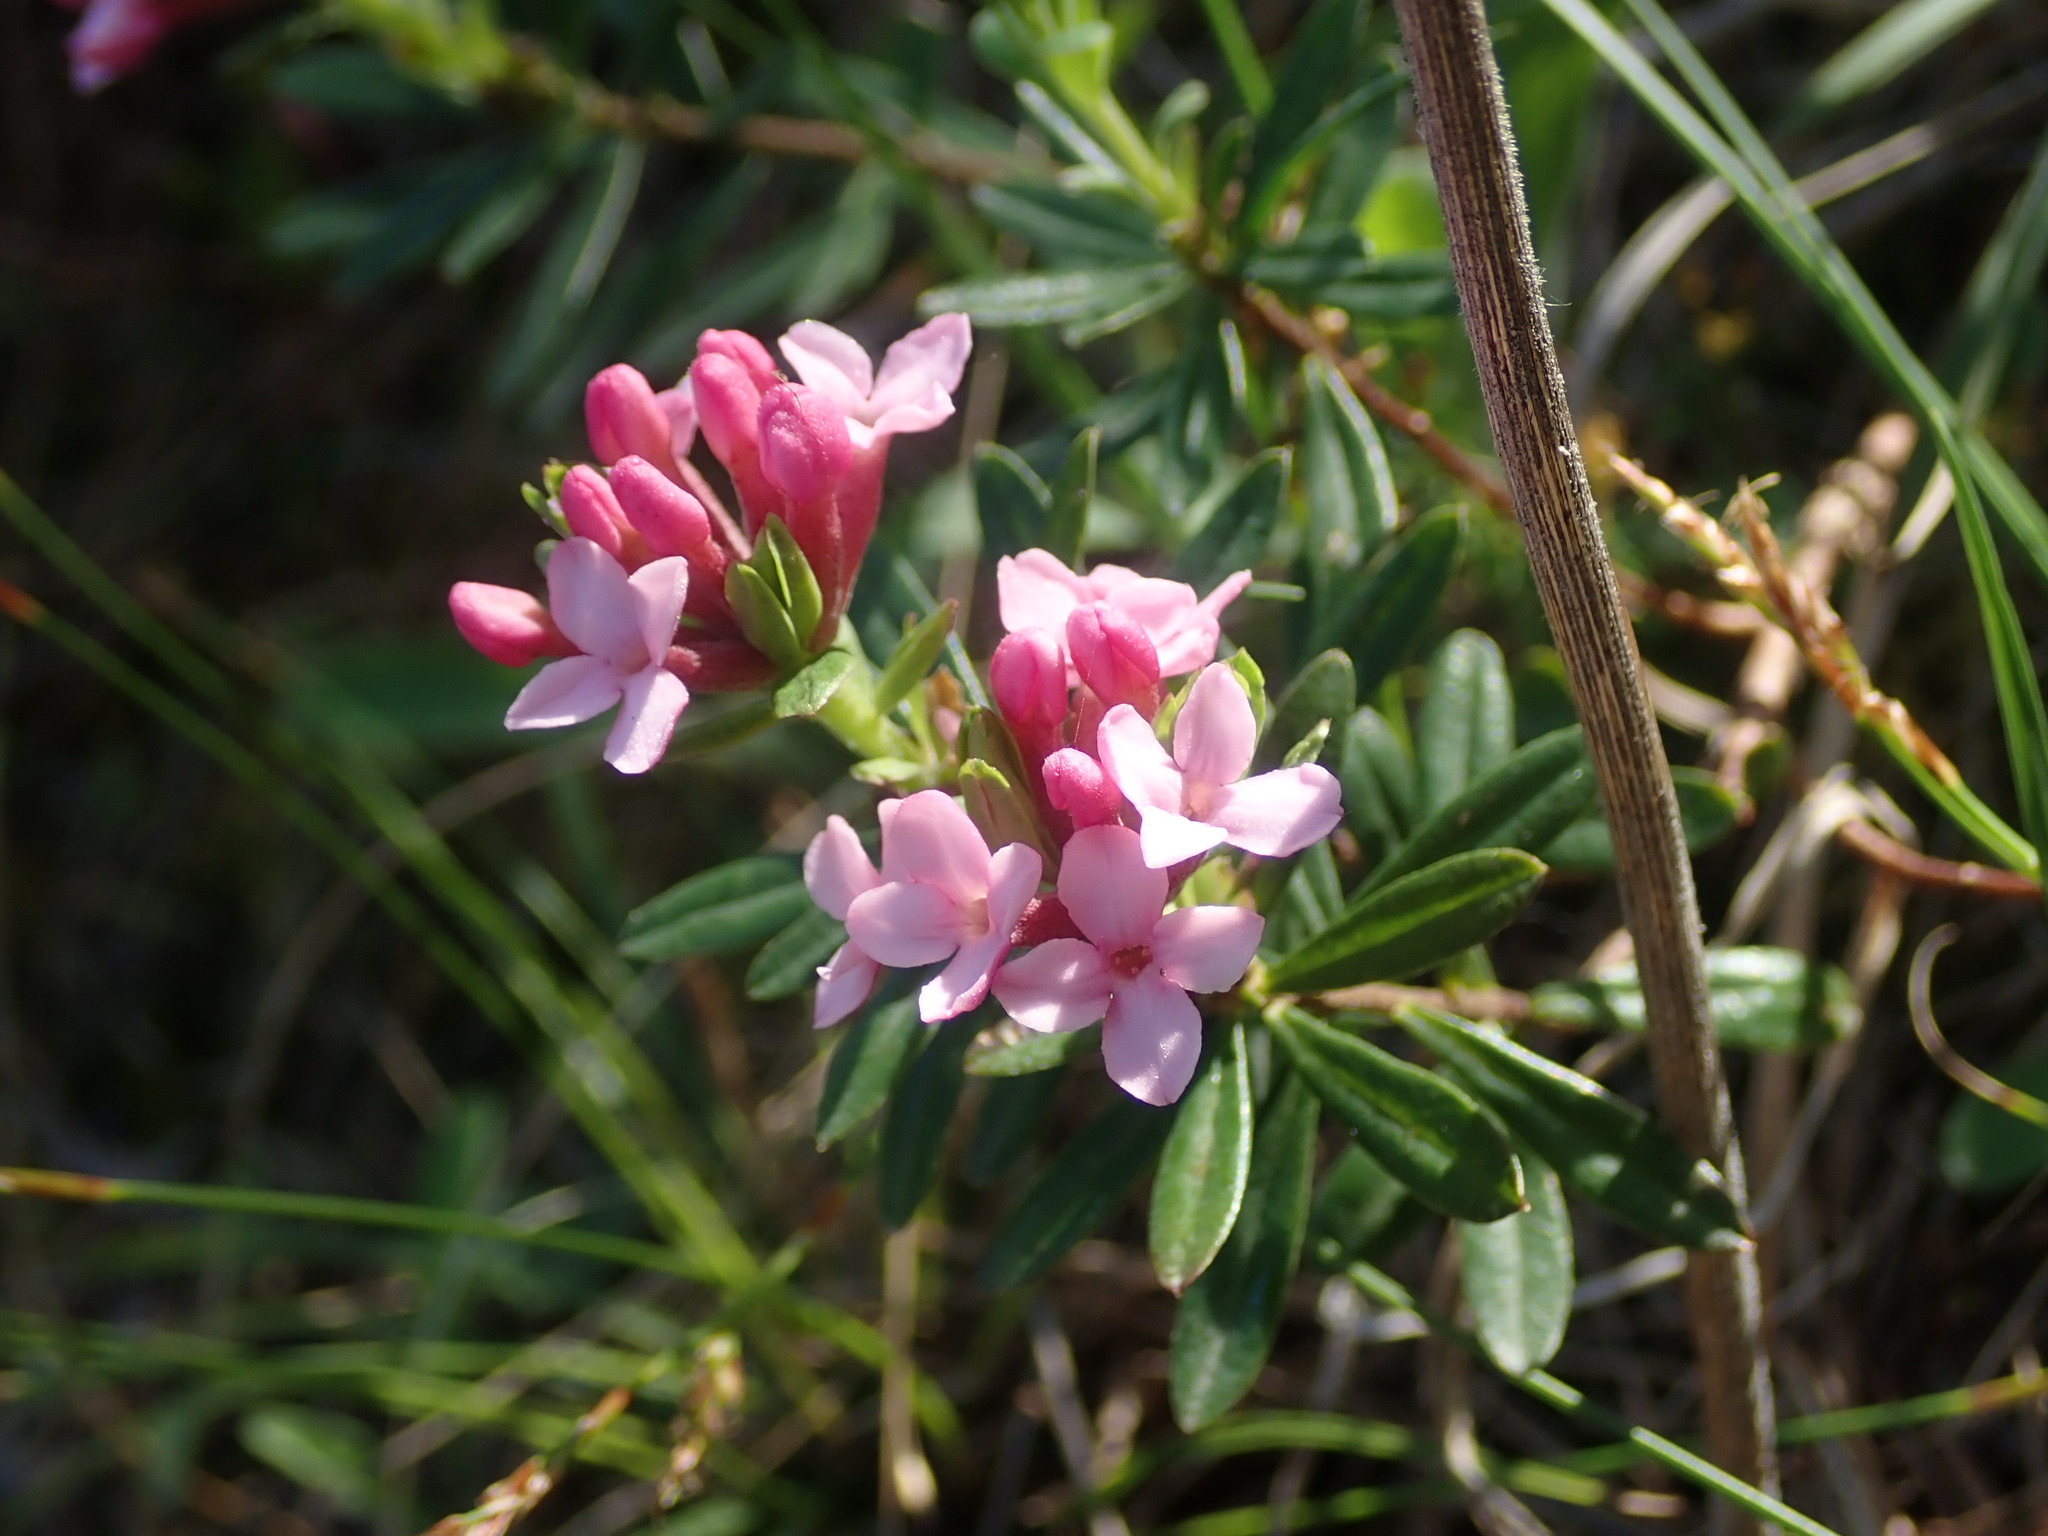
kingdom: Plantae
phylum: Tracheophyta
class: Magnoliopsida
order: Malvales
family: Thymelaeaceae
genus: Daphne
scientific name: Daphne cneorum
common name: Garland-flower
